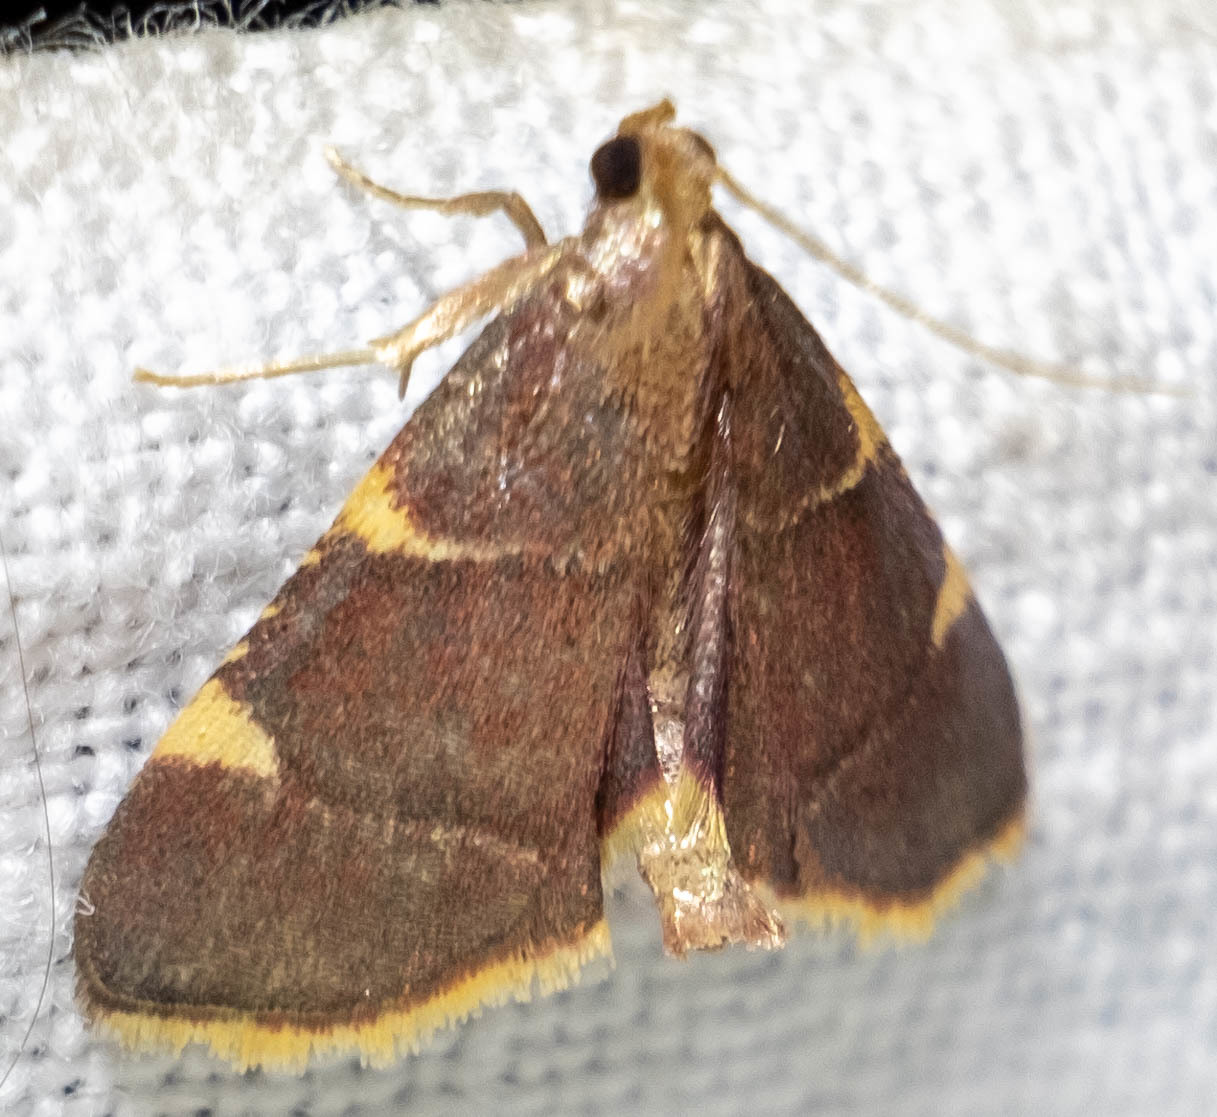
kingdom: Animalia
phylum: Arthropoda
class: Insecta
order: Lepidoptera
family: Pyralidae
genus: Hypsopygia
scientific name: Hypsopygia olinalis
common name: Yellow-fringed dolichomia moth
